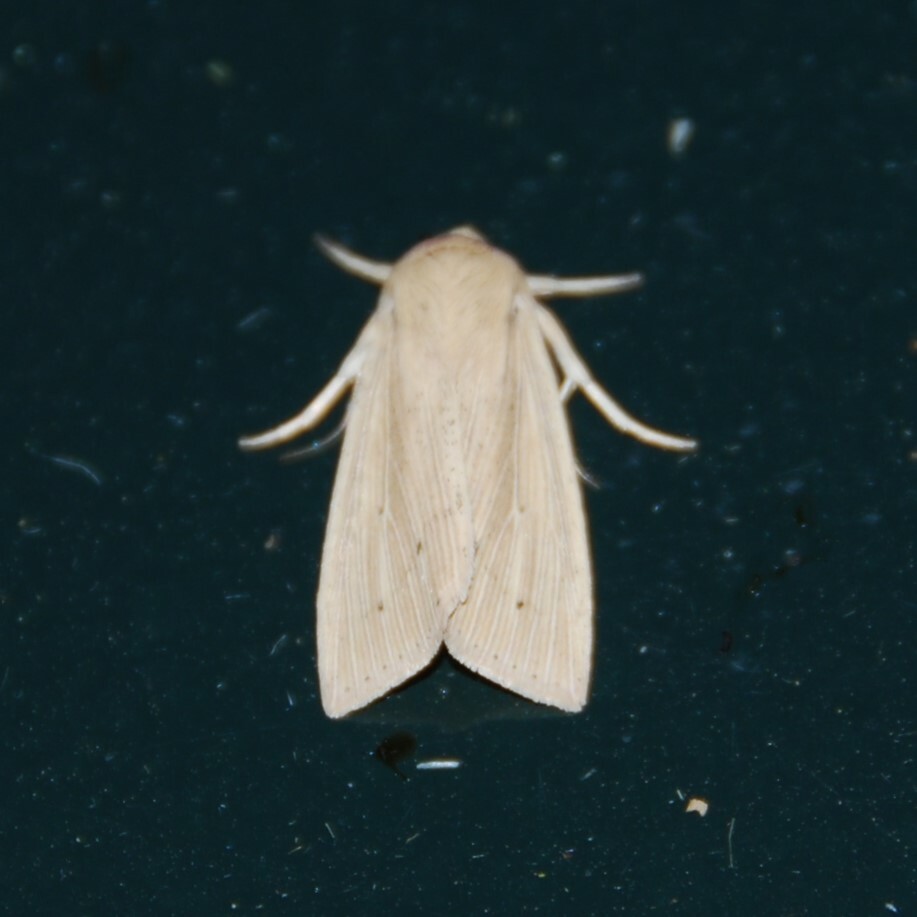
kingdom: Animalia
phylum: Arthropoda
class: Insecta
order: Lepidoptera
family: Noctuidae
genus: Mythimna
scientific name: Mythimna straminea
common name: Southern wainscot
